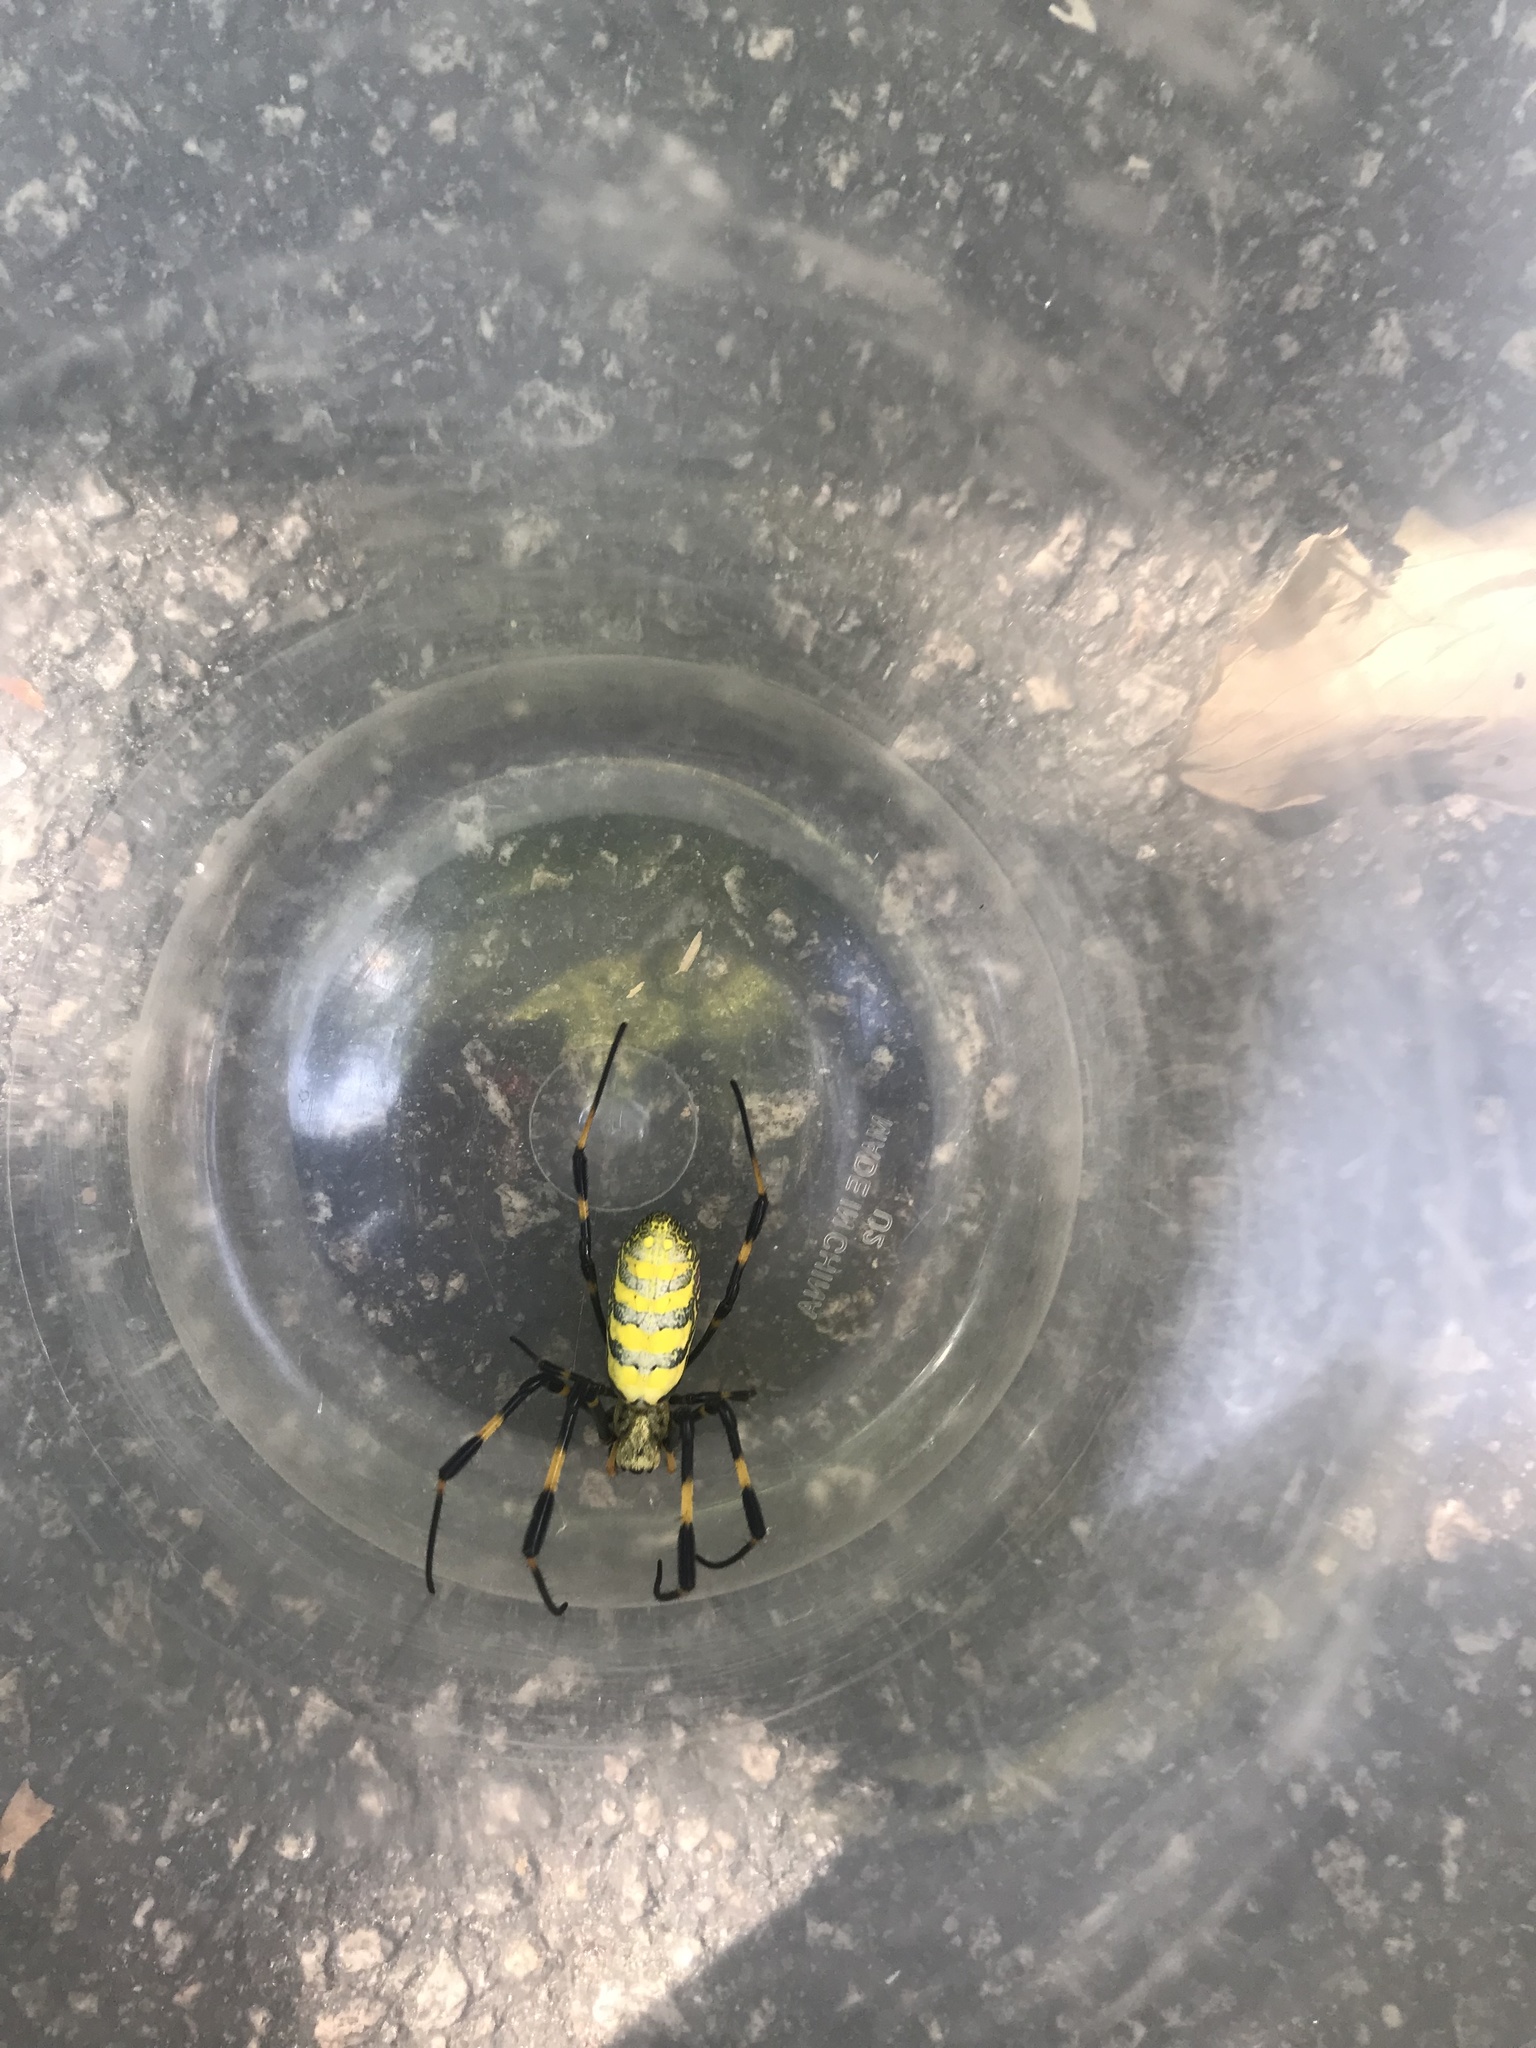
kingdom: Animalia
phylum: Arthropoda
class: Arachnida
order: Araneae
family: Araneidae
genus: Trichonephila
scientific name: Trichonephila clavata
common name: Jorō spider
